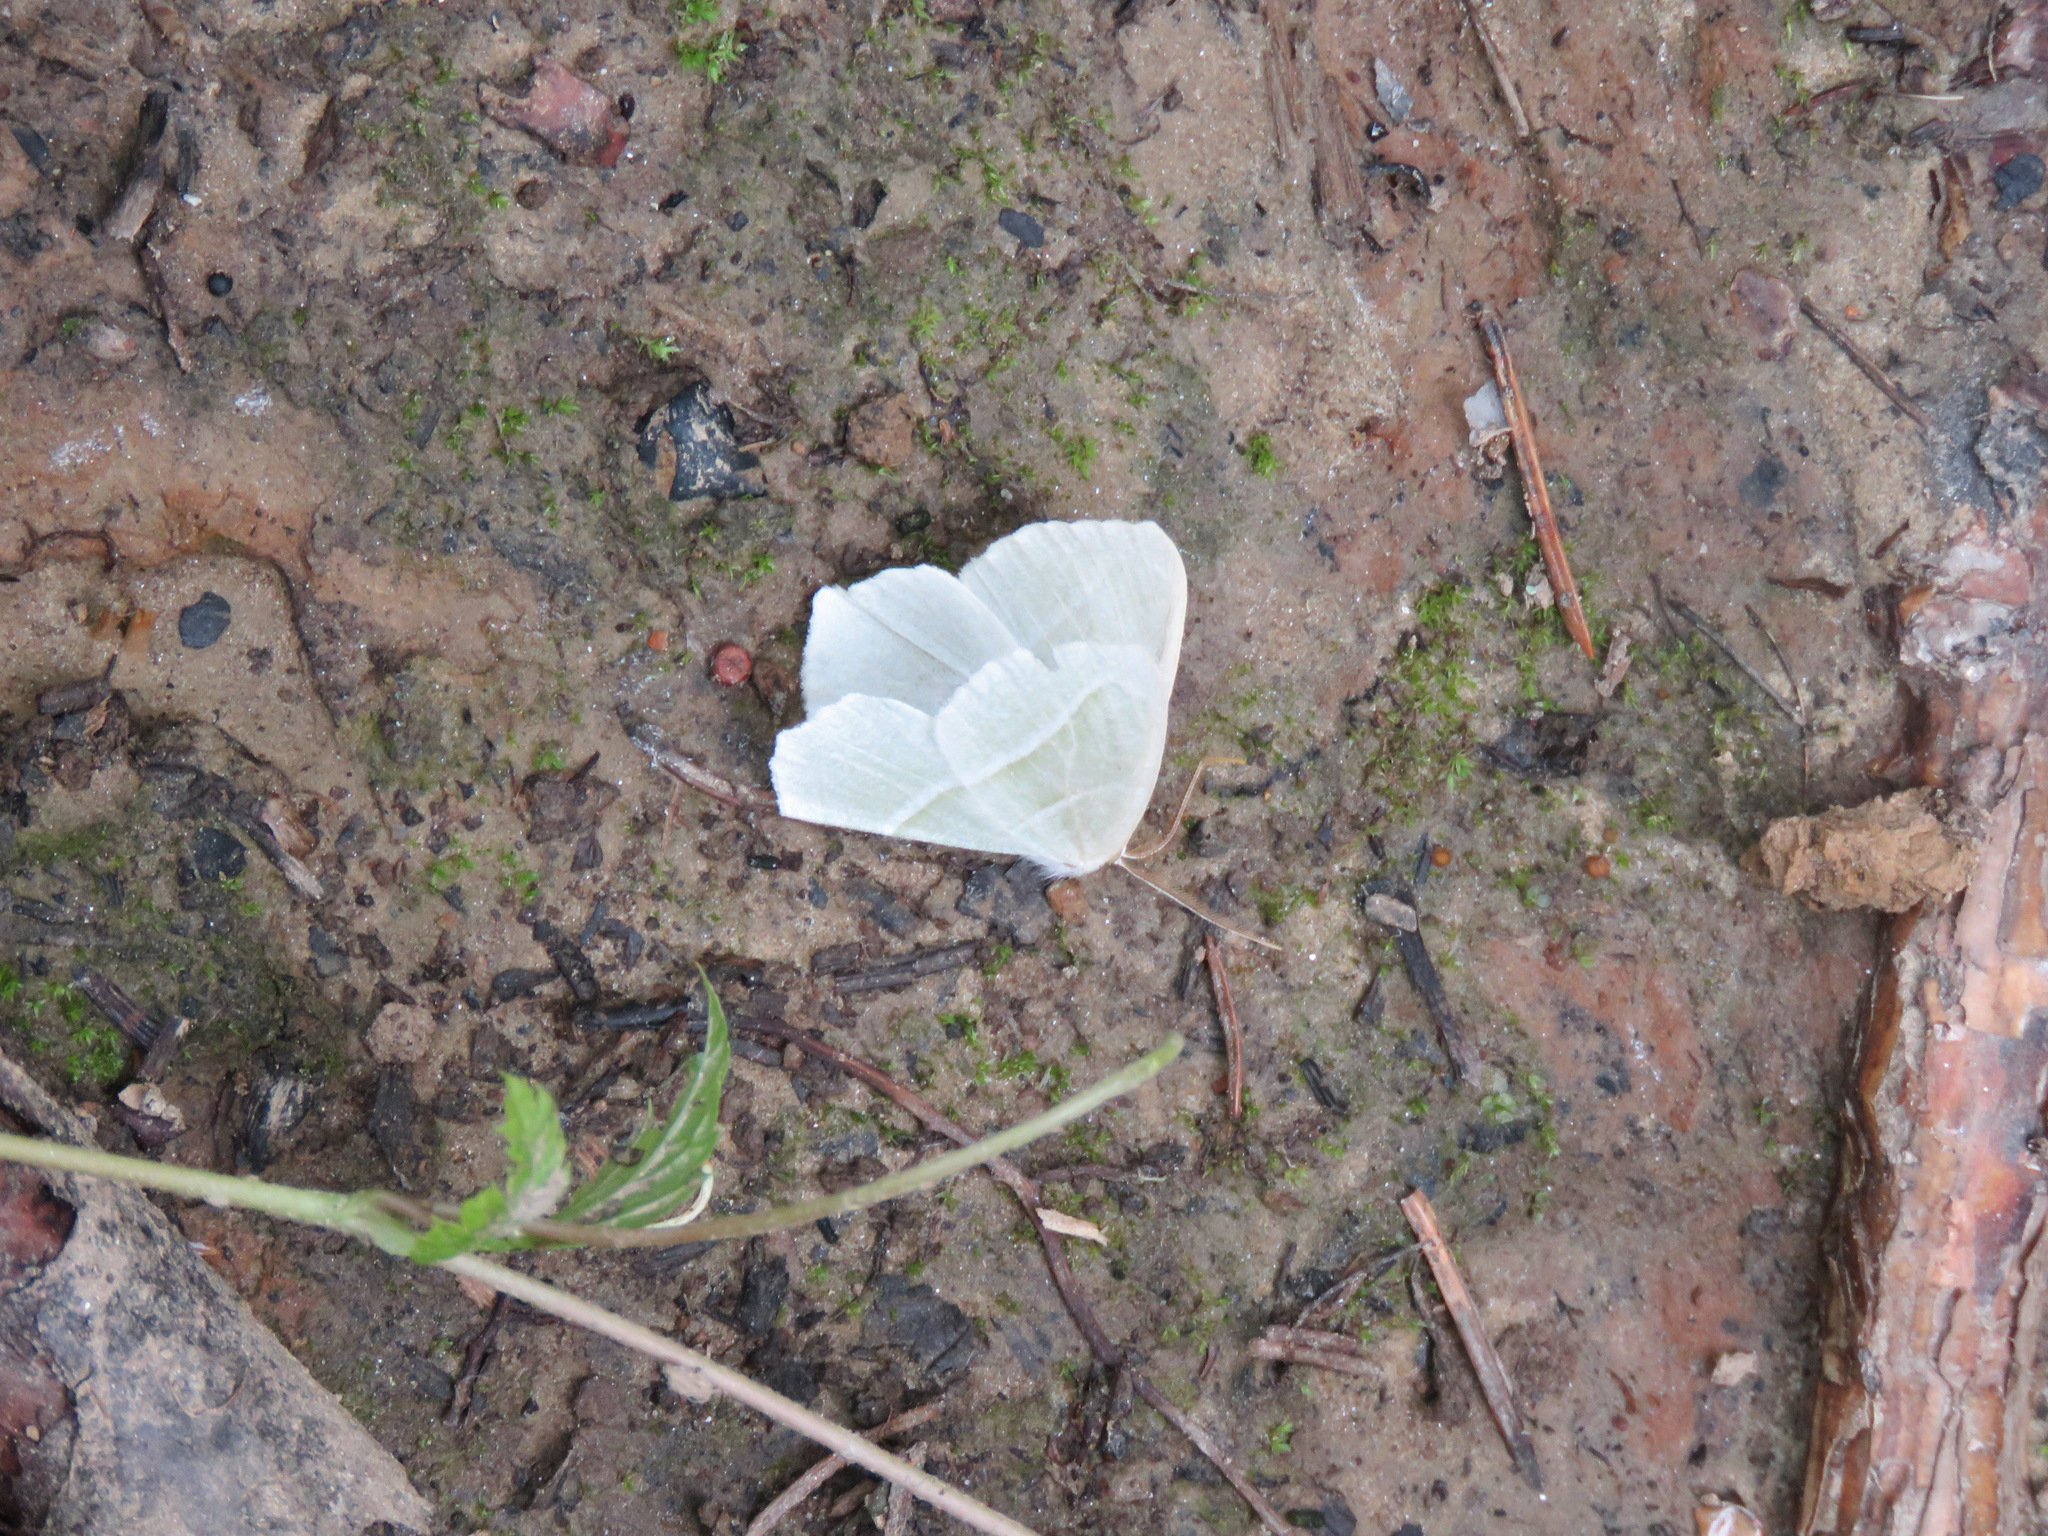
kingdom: Animalia
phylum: Arthropoda
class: Insecta
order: Lepidoptera
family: Geometridae
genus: Campaea
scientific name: Campaea perlata
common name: Fringed looper
